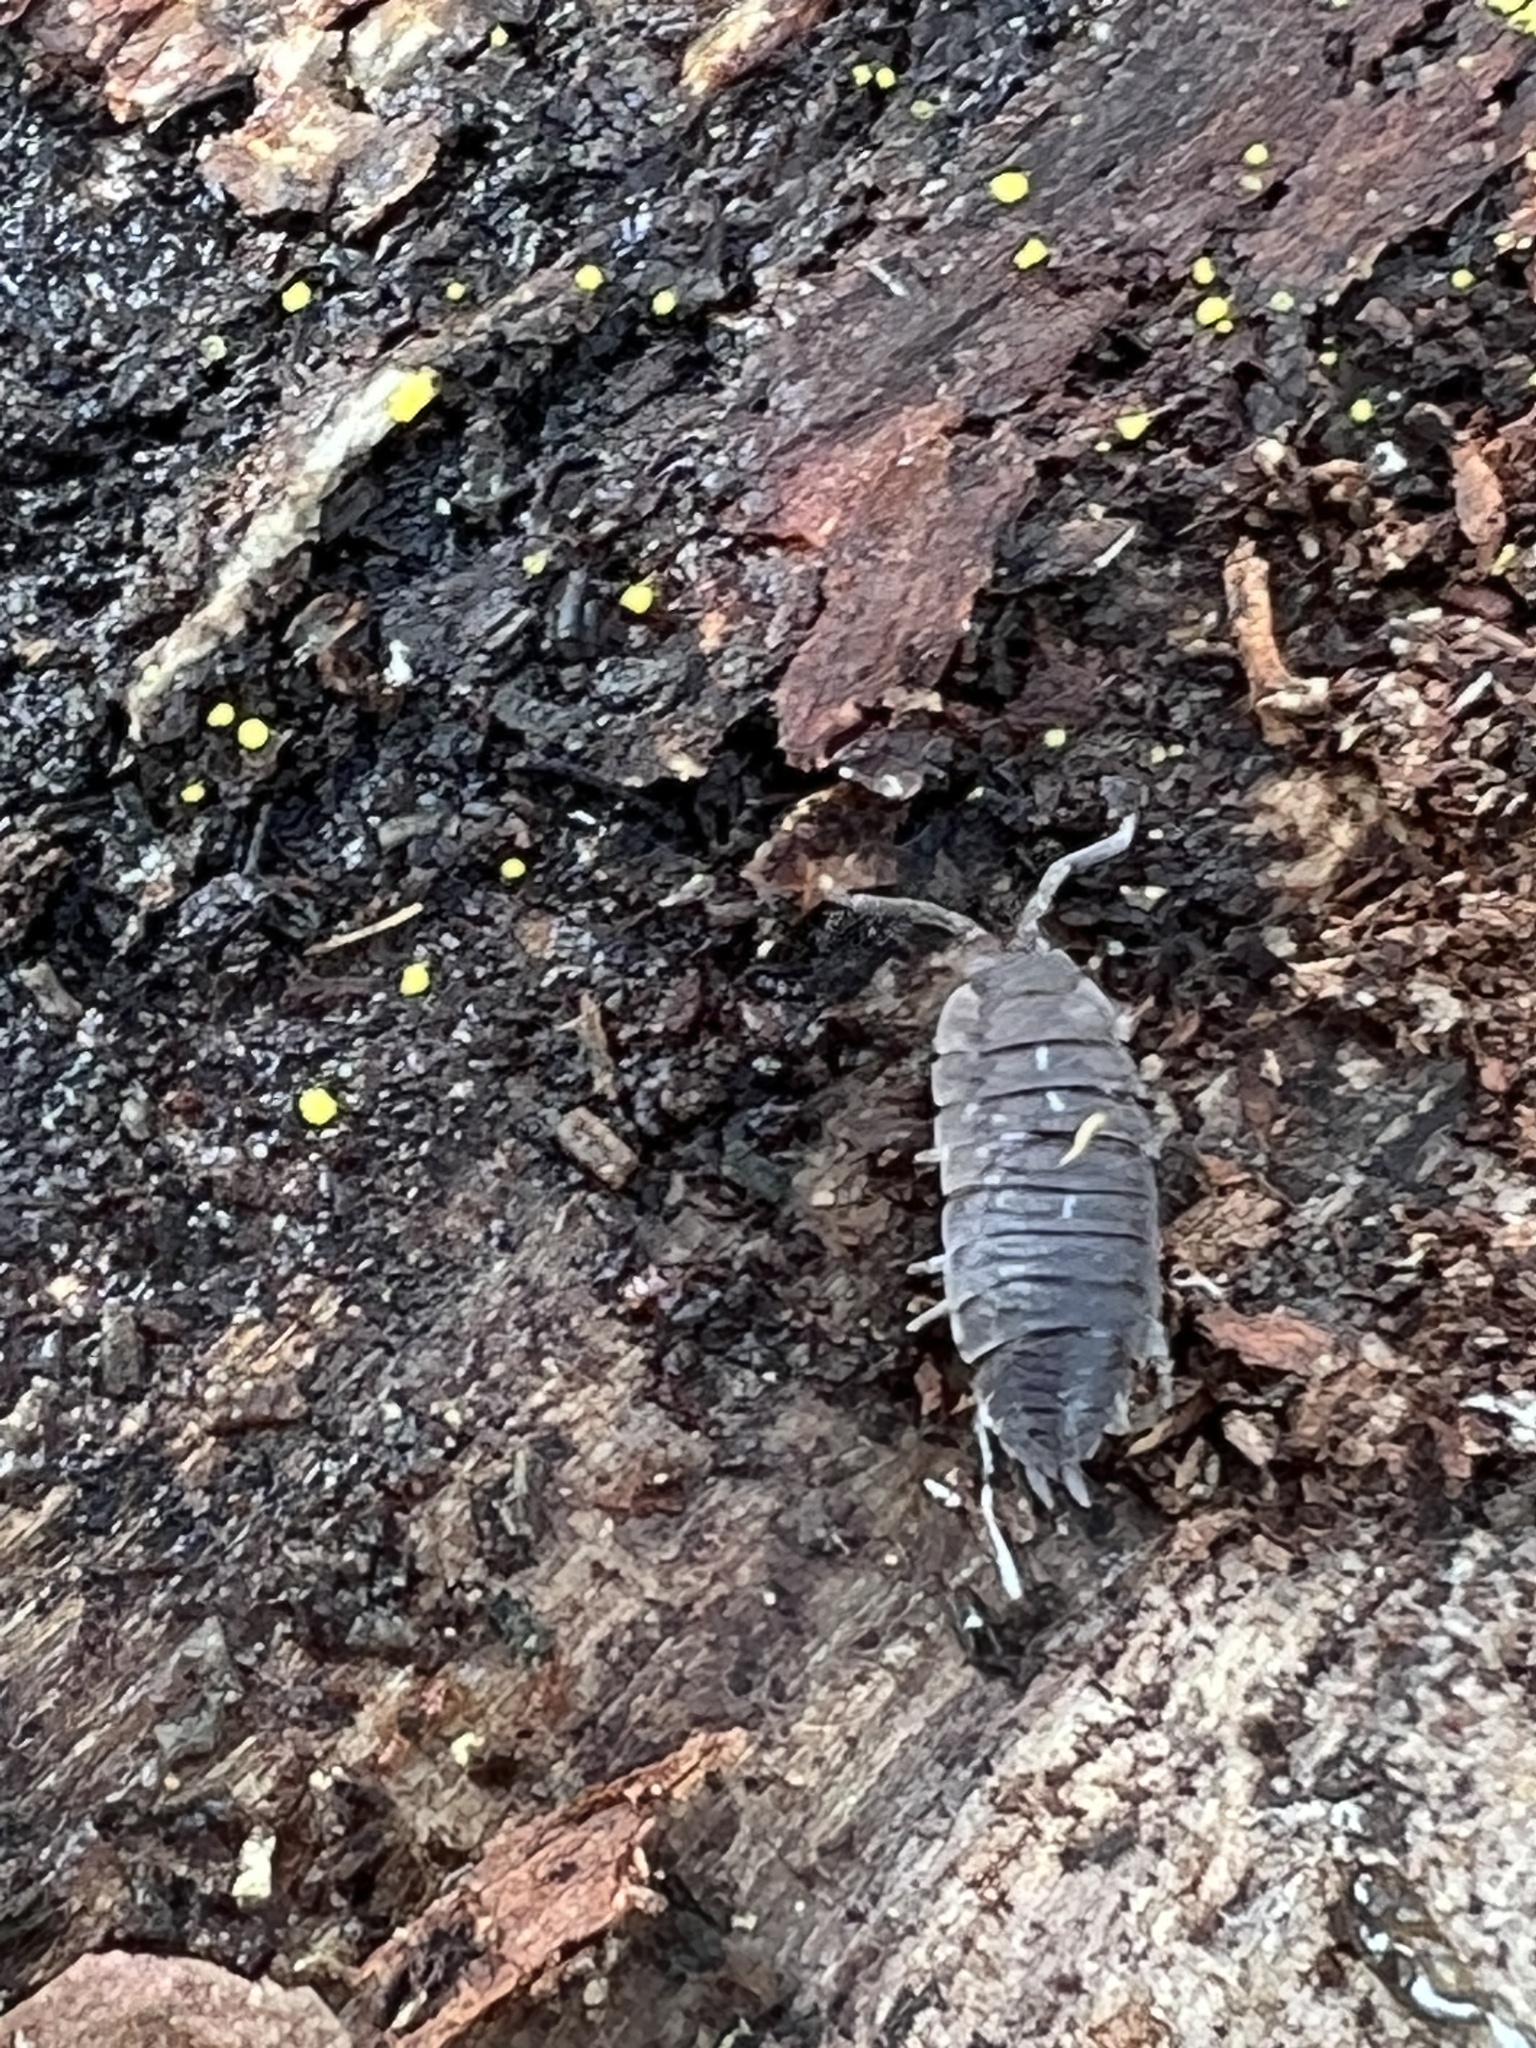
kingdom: Animalia
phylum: Arthropoda
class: Malacostraca
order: Isopoda
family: Porcellionidae
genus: Porcellio
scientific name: Porcellio scaber
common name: Common rough woodlouse
